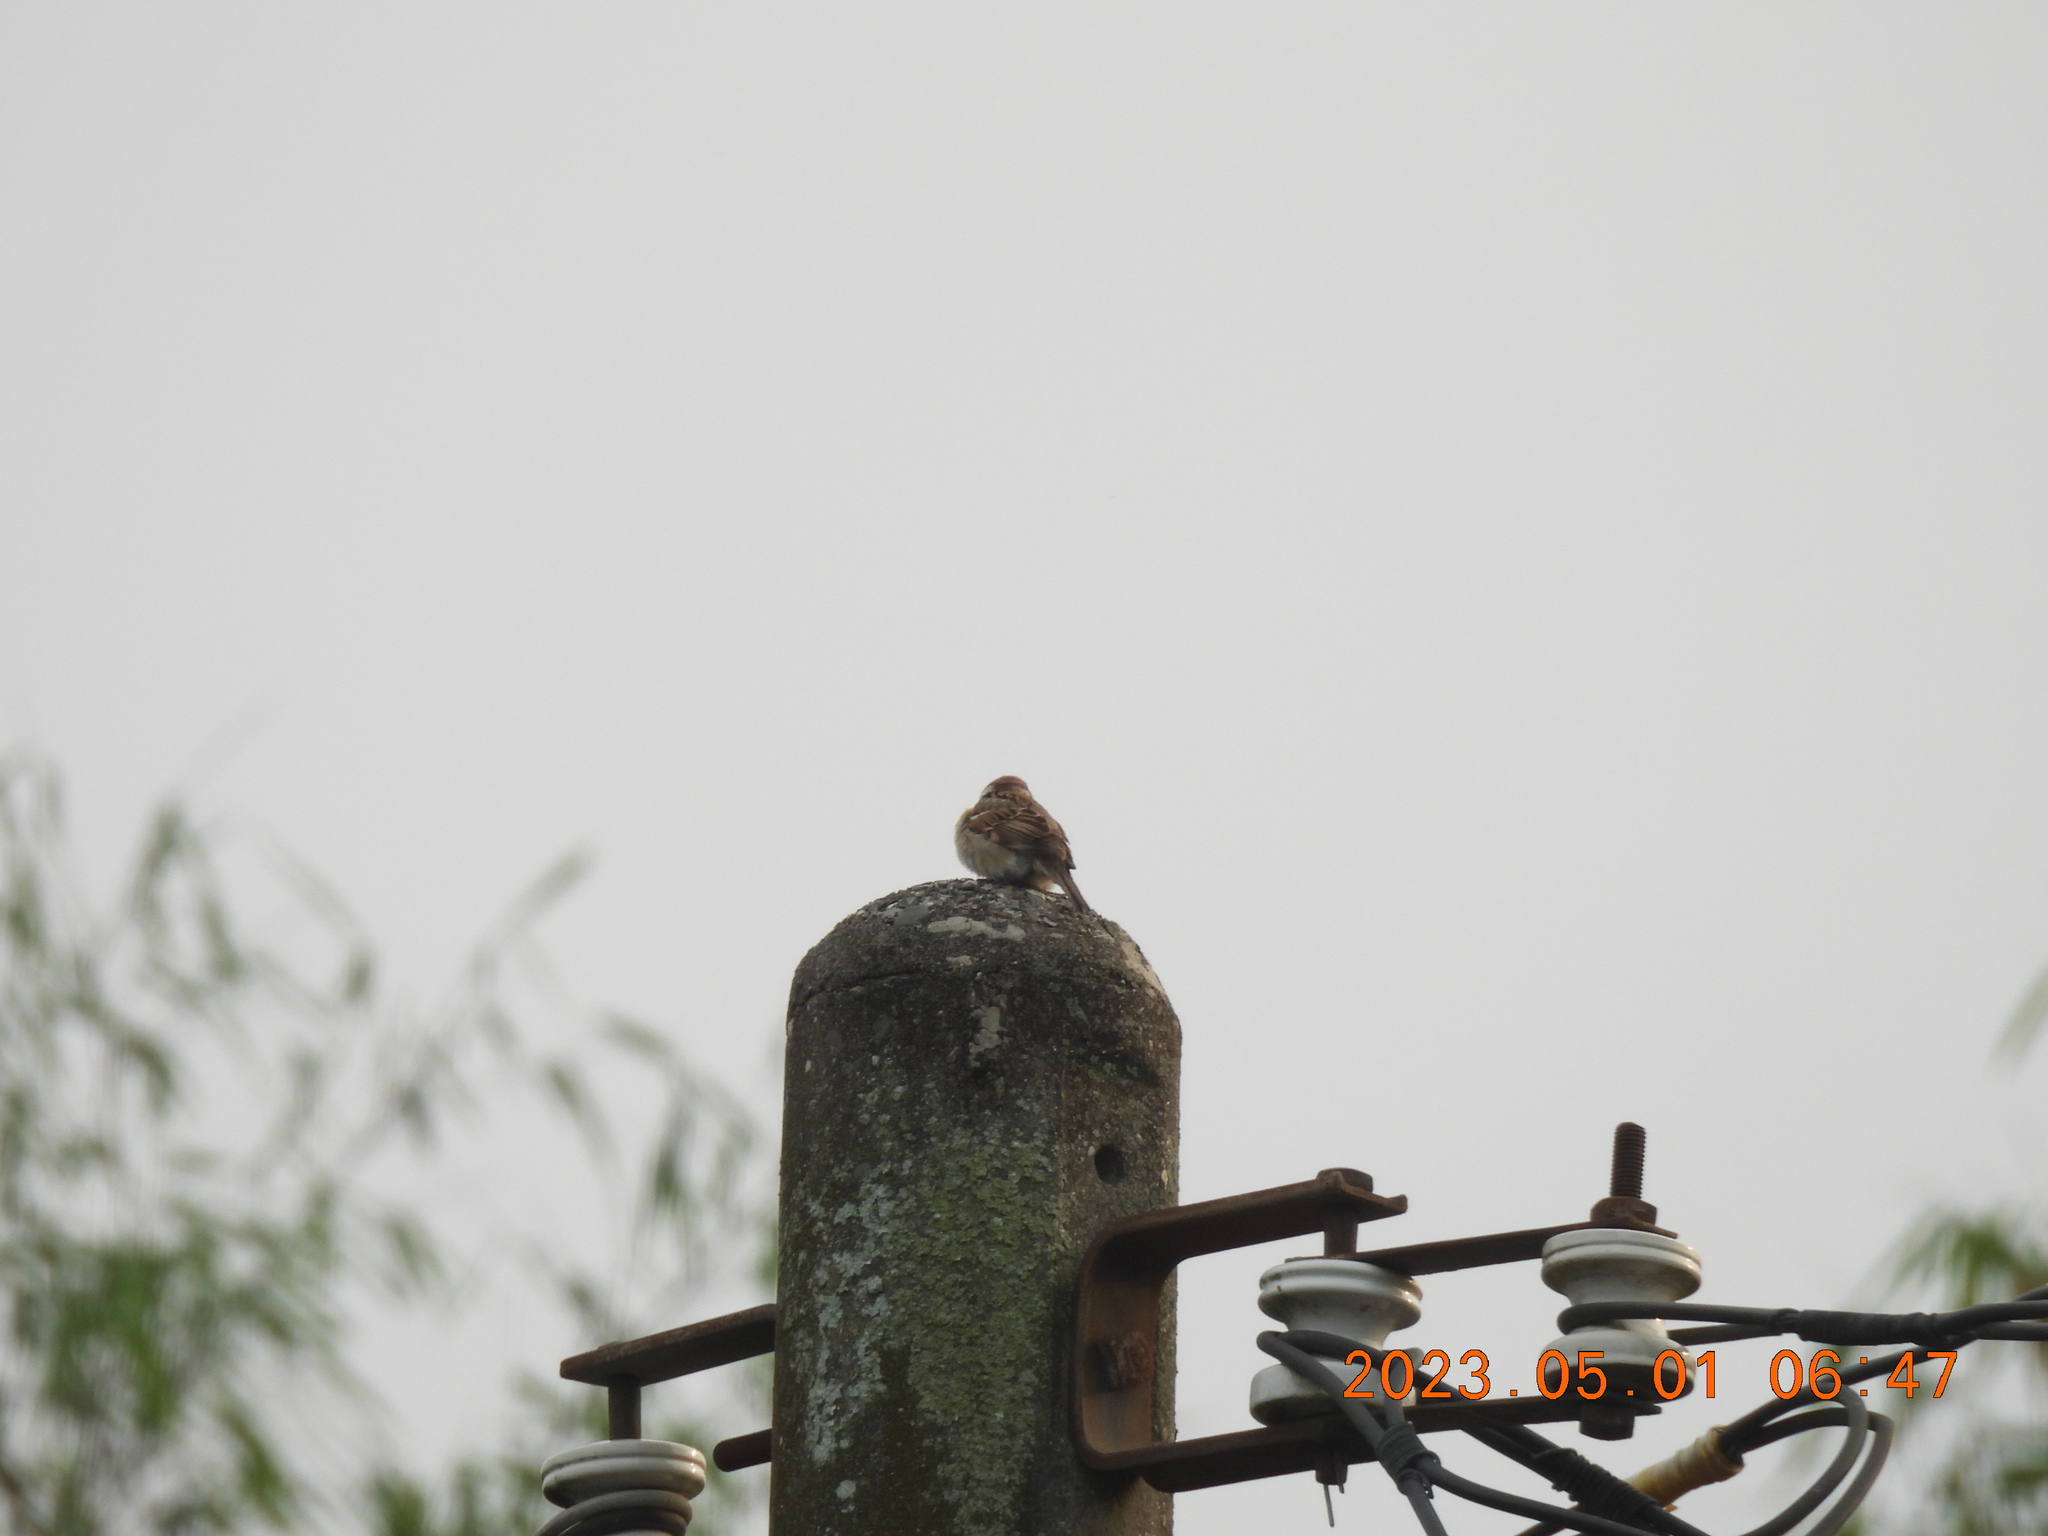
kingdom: Animalia
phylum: Chordata
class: Aves
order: Passeriformes
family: Passeridae
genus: Passer
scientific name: Passer montanus
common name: Eurasian tree sparrow
